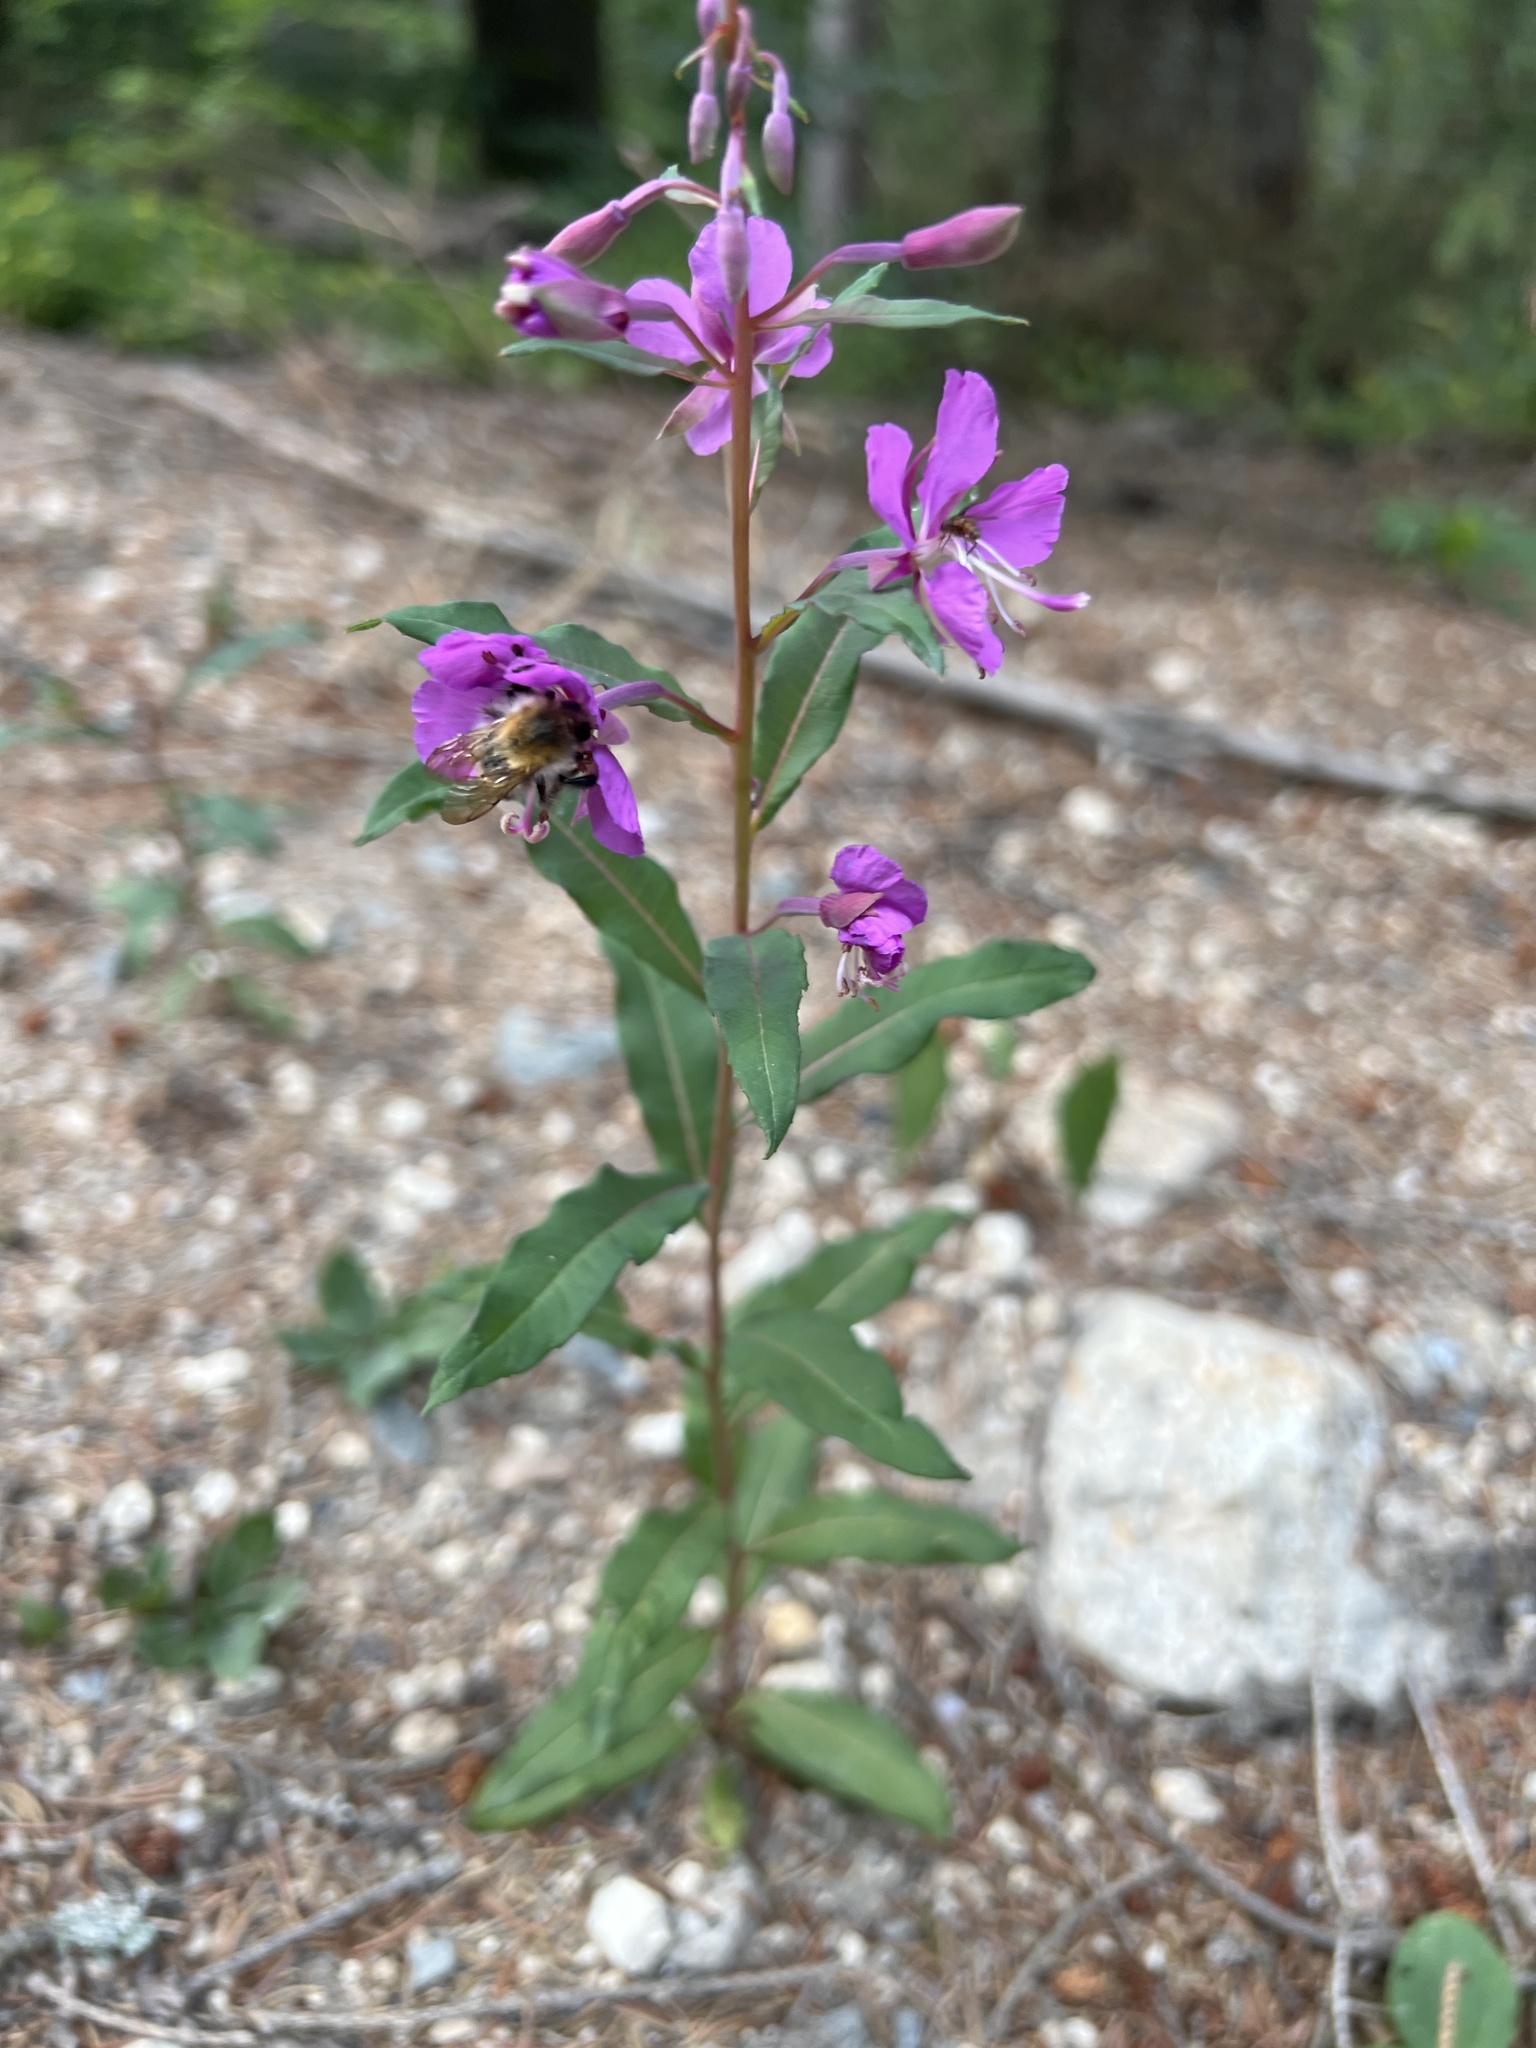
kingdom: Plantae
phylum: Tracheophyta
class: Magnoliopsida
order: Myrtales
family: Onagraceae
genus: Chamaenerion
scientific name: Chamaenerion angustifolium
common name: Fireweed
